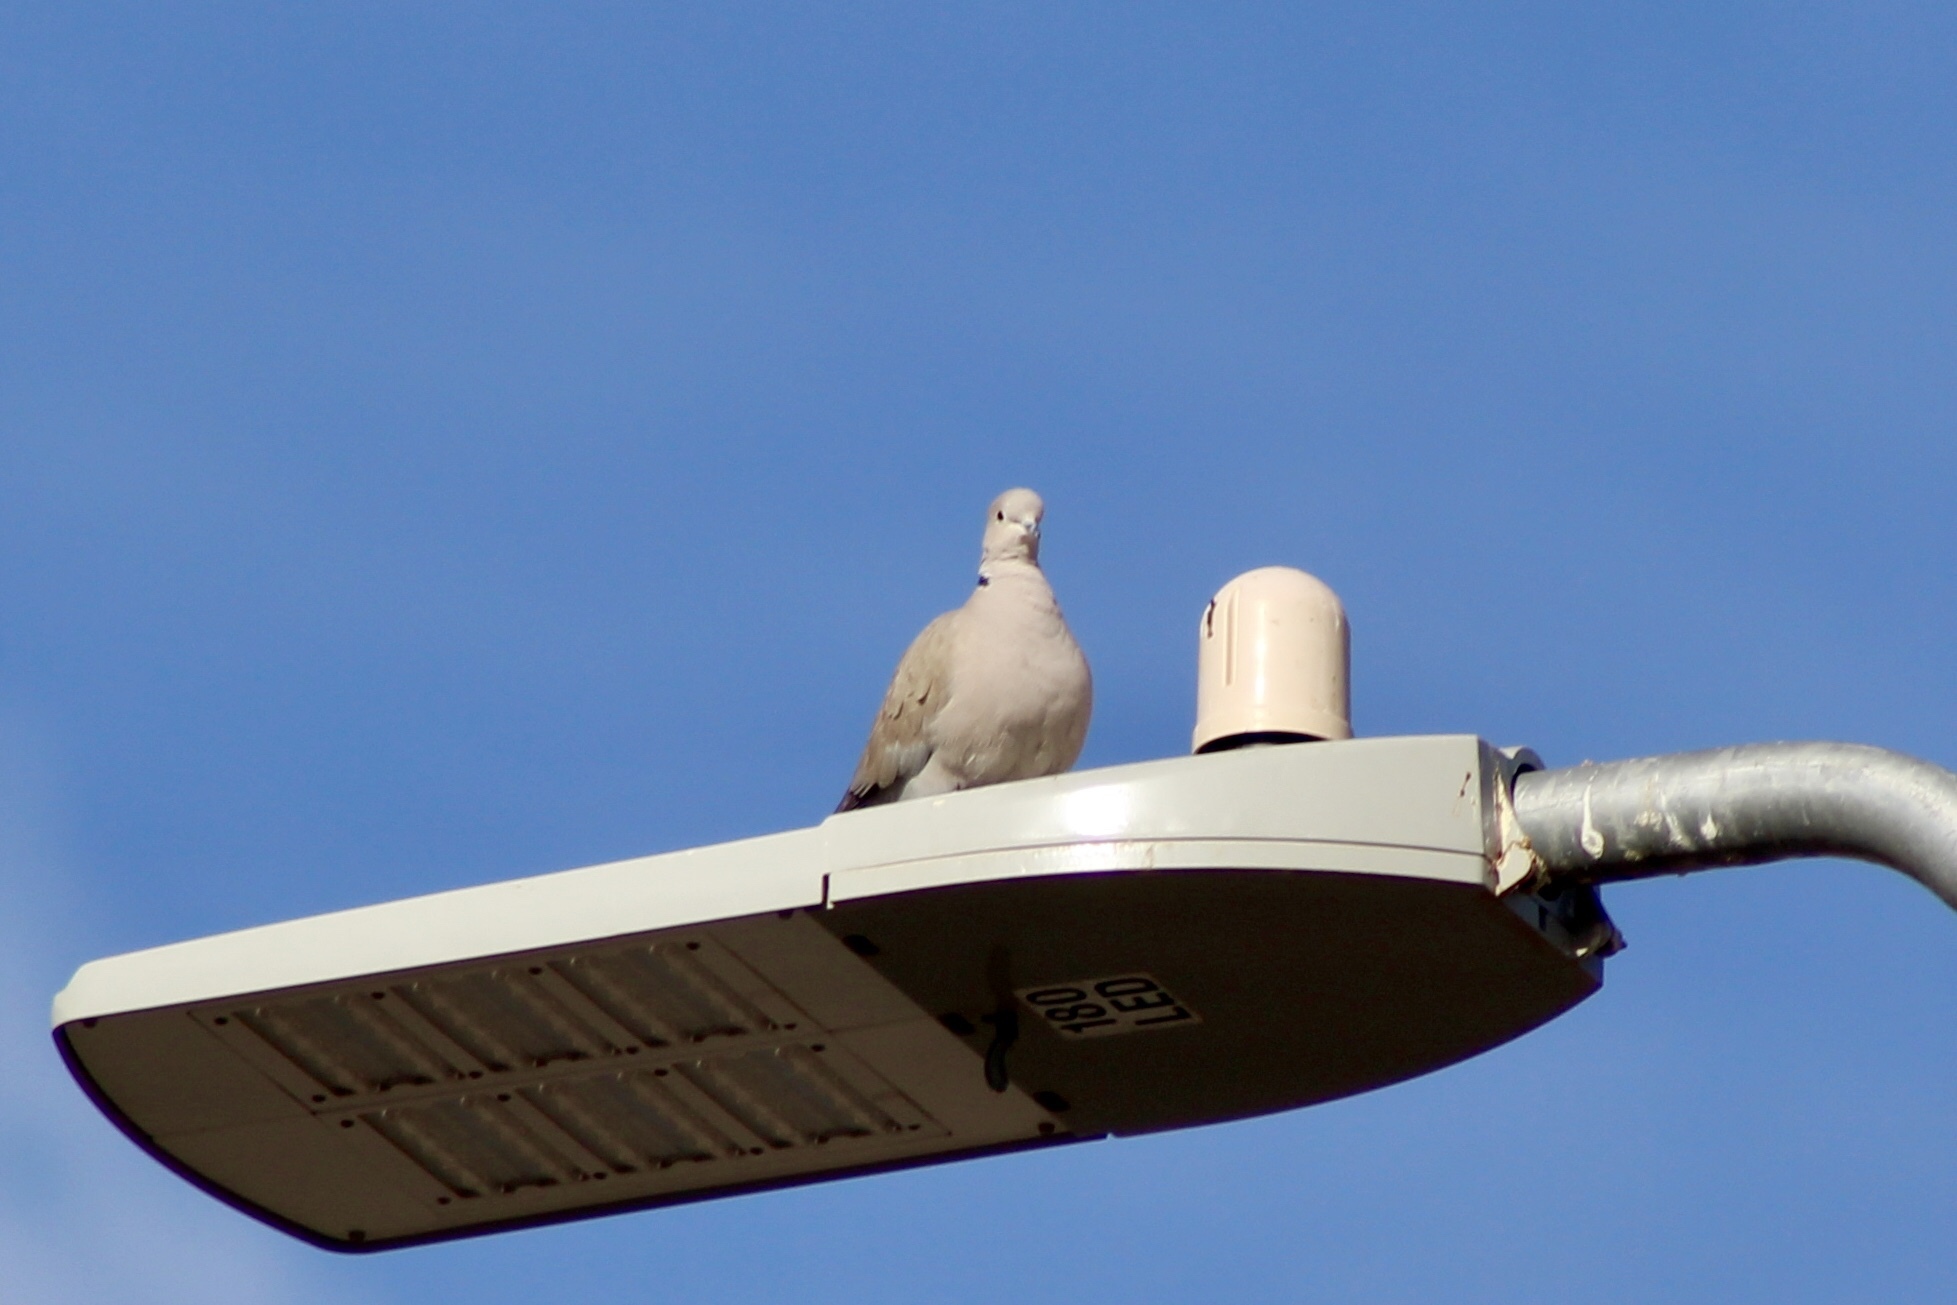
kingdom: Animalia
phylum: Chordata
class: Aves
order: Columbiformes
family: Columbidae
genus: Streptopelia
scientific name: Streptopelia decaocto
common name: Eurasian collared dove
